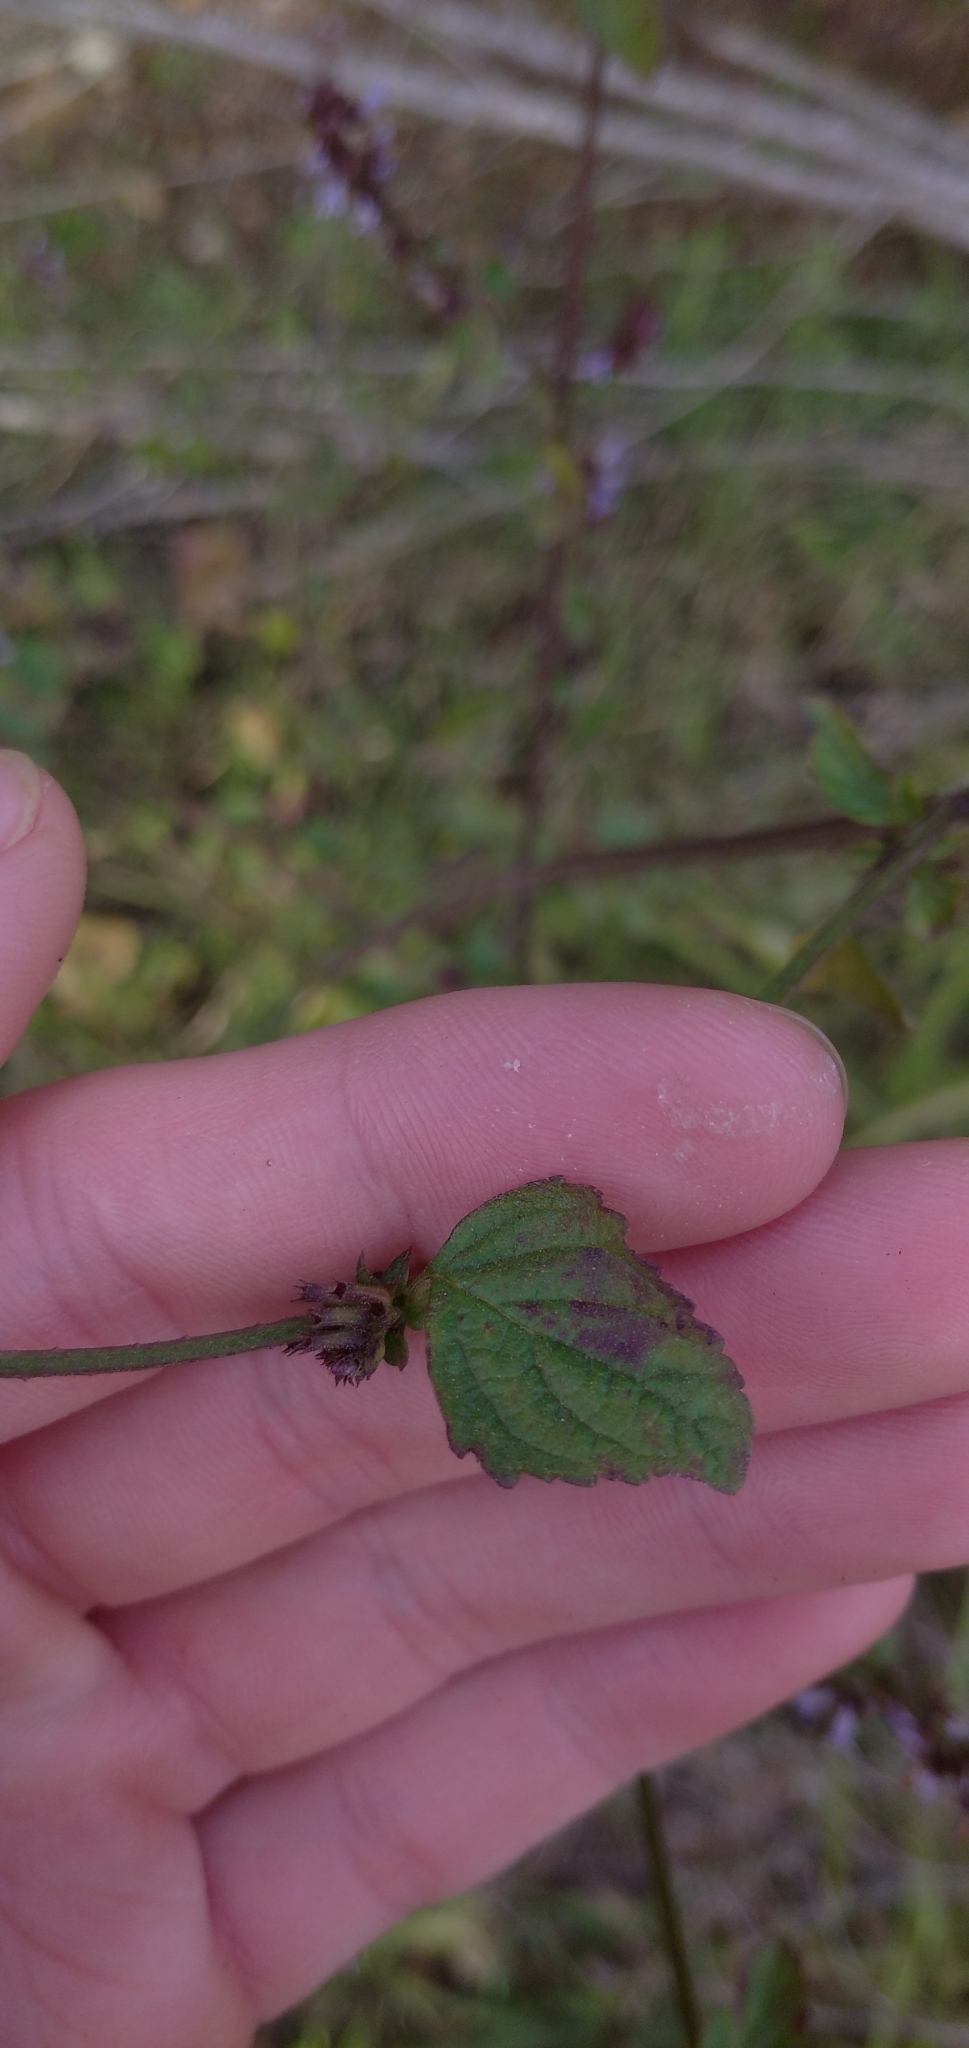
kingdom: Plantae
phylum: Tracheophyta
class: Magnoliopsida
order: Lamiales
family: Lamiaceae
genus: Cantinoa
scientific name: Cantinoa mutabilis
